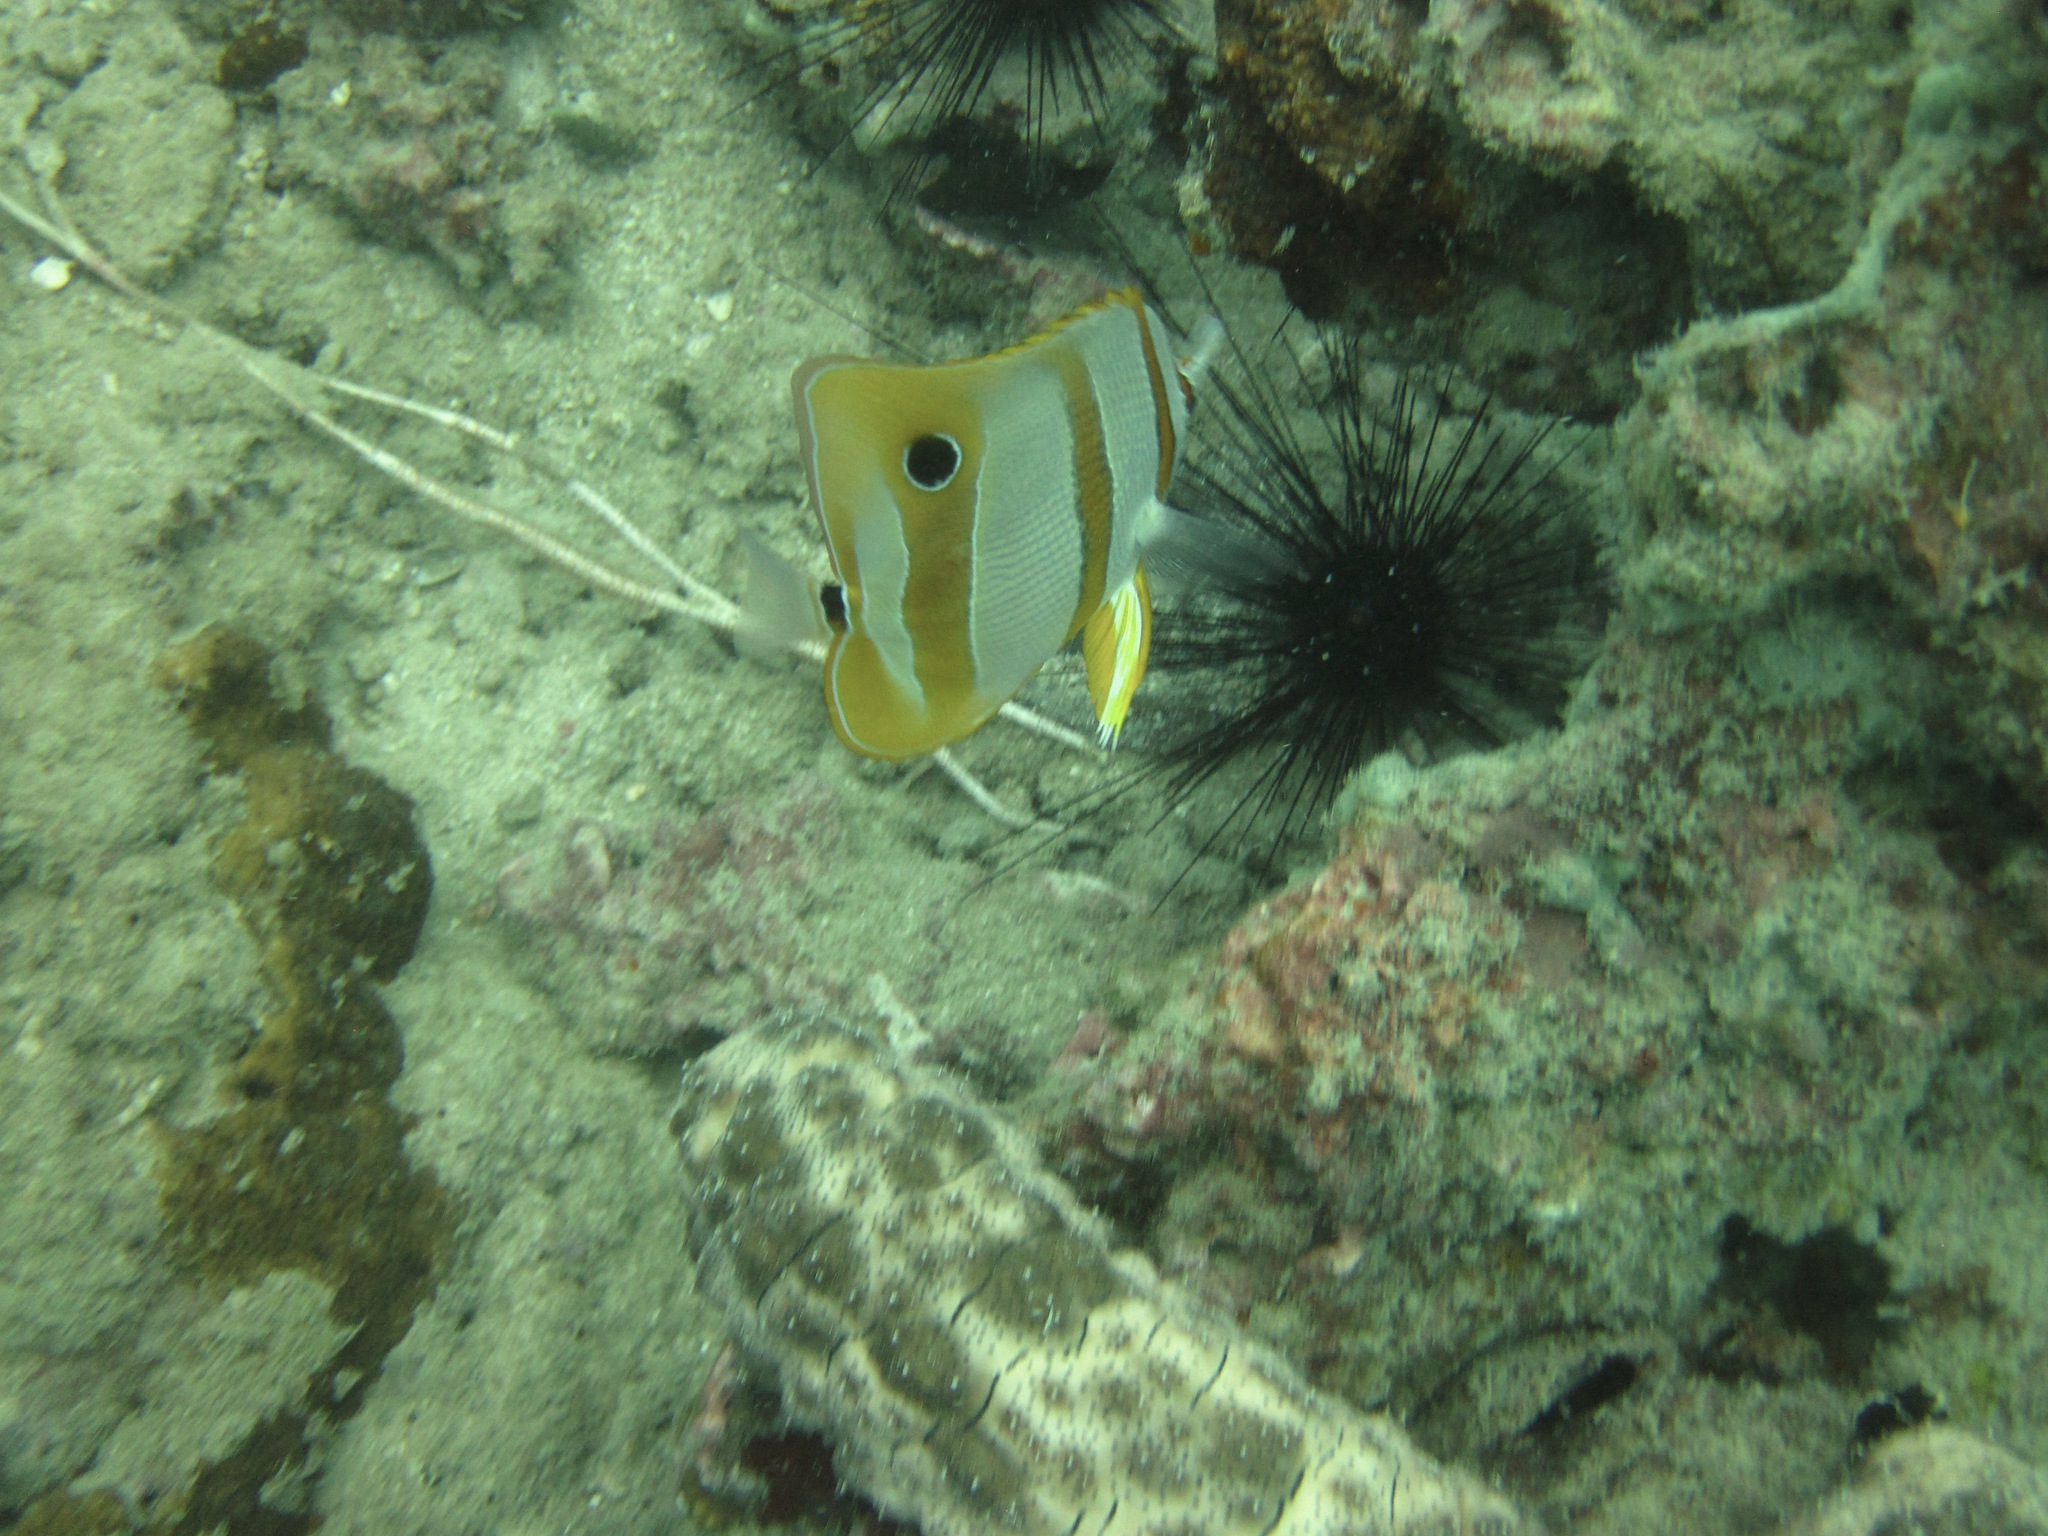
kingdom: Animalia
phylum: Chordata
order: Perciformes
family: Chaetodontidae
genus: Chelmon
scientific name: Chelmon rostratus
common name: Beaked butterflyfish
